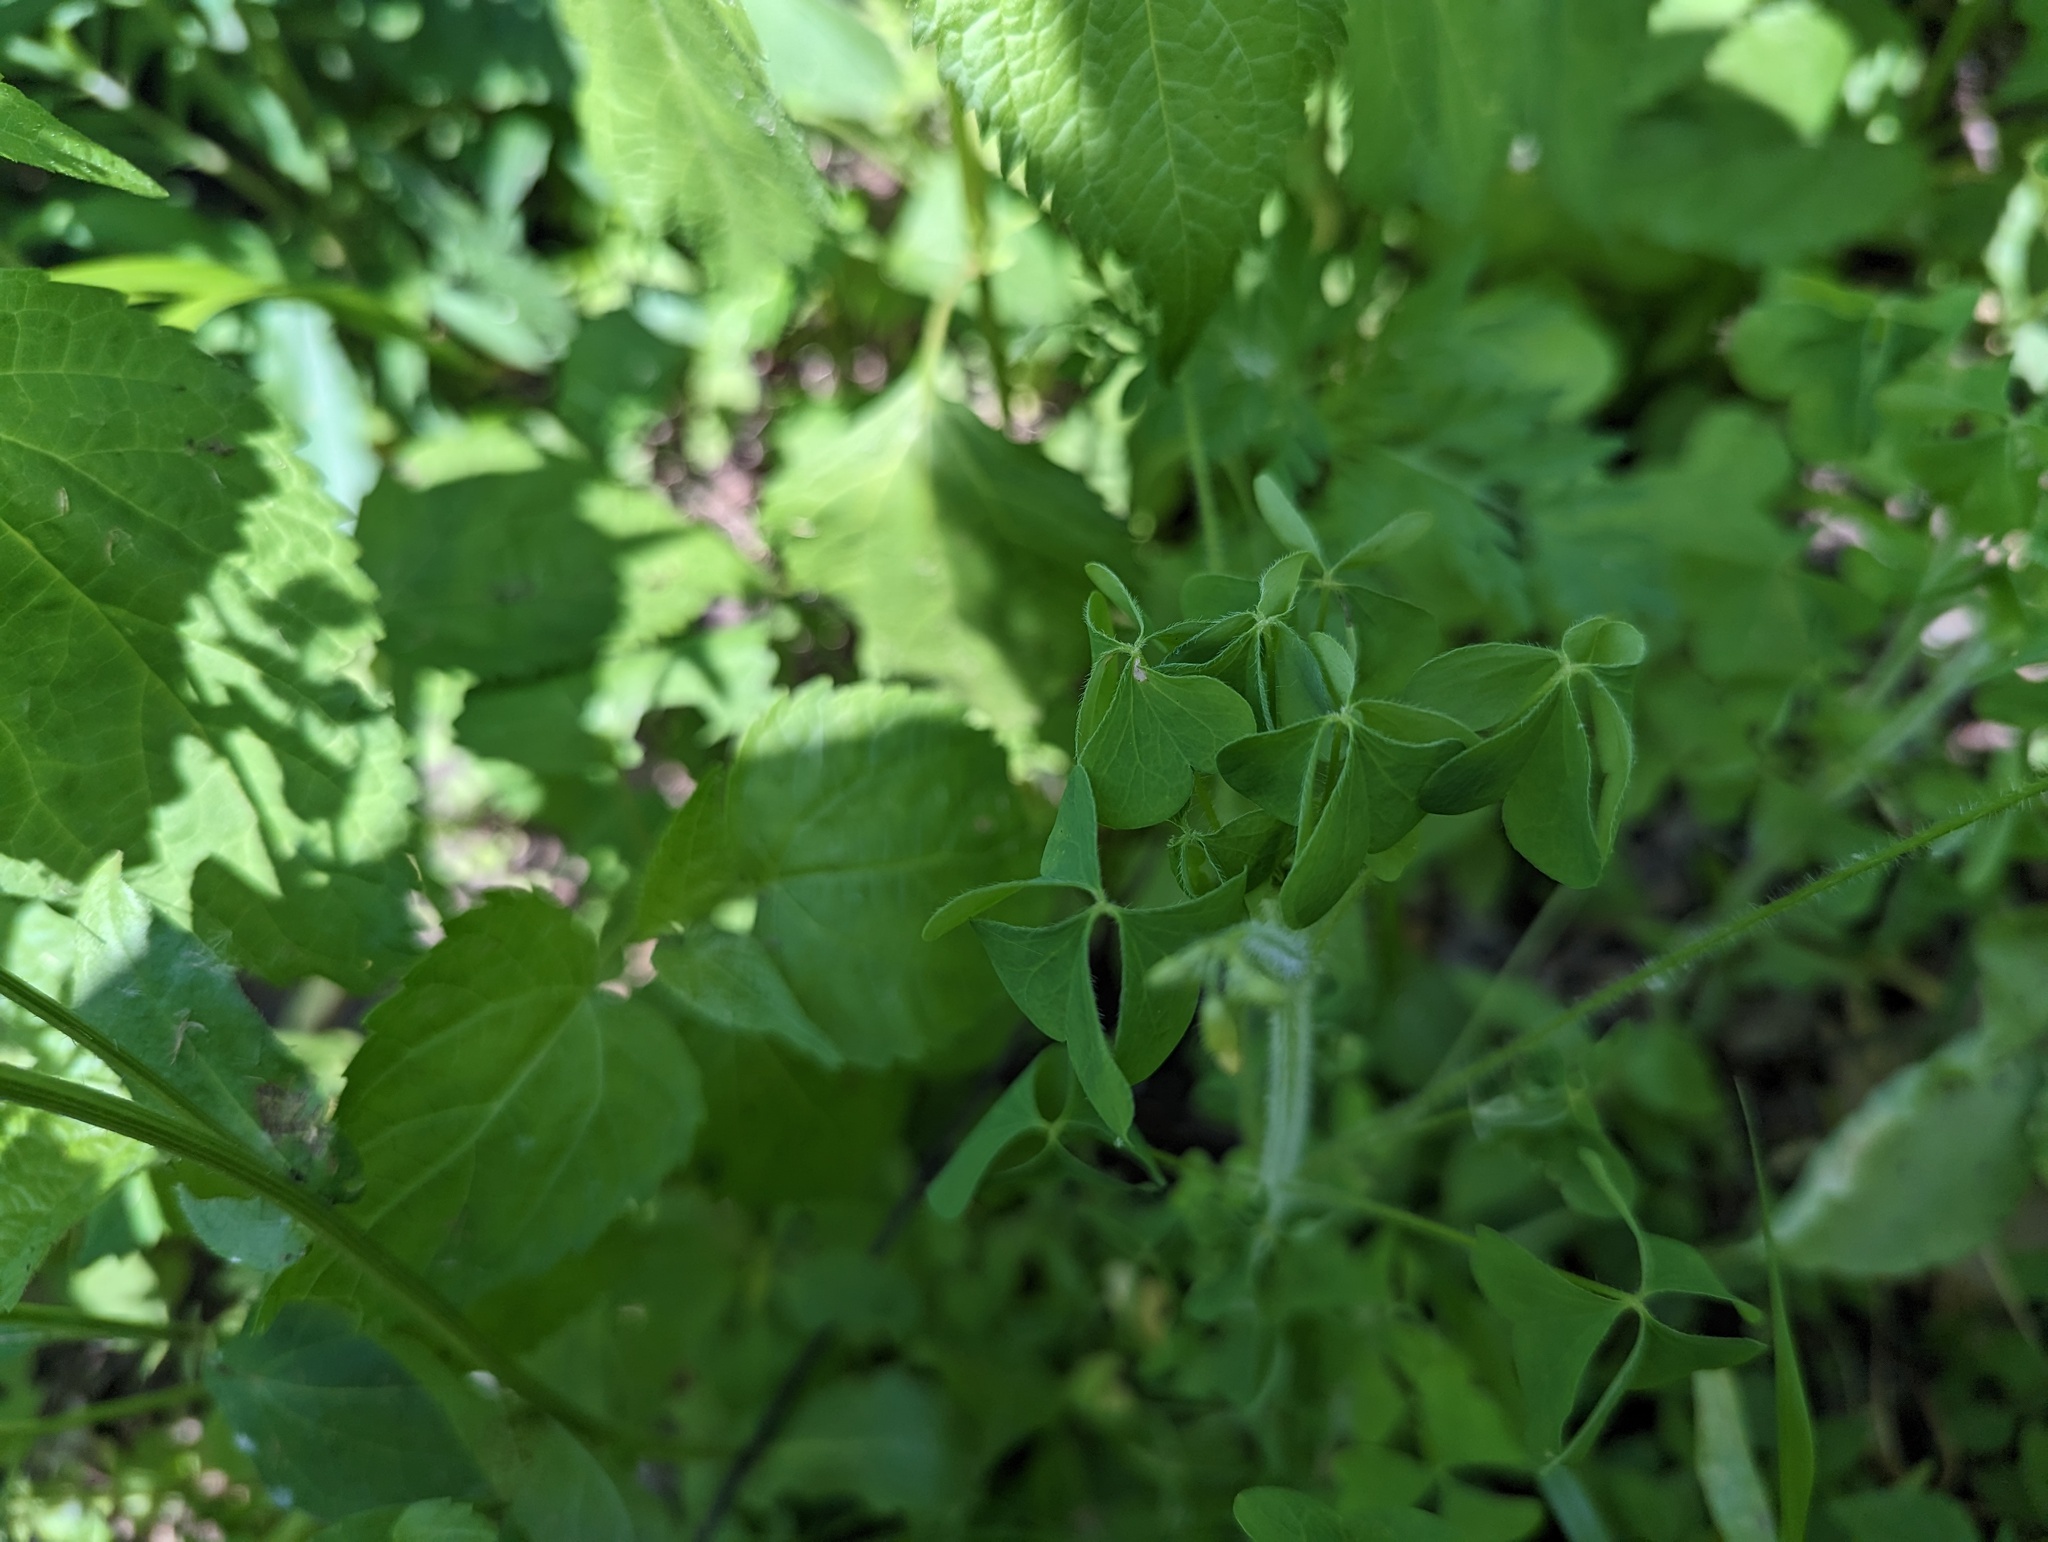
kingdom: Plantae
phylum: Tracheophyta
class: Magnoliopsida
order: Oxalidales
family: Oxalidaceae
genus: Oxalis
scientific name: Oxalis stricta
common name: Upright yellow-sorrel
